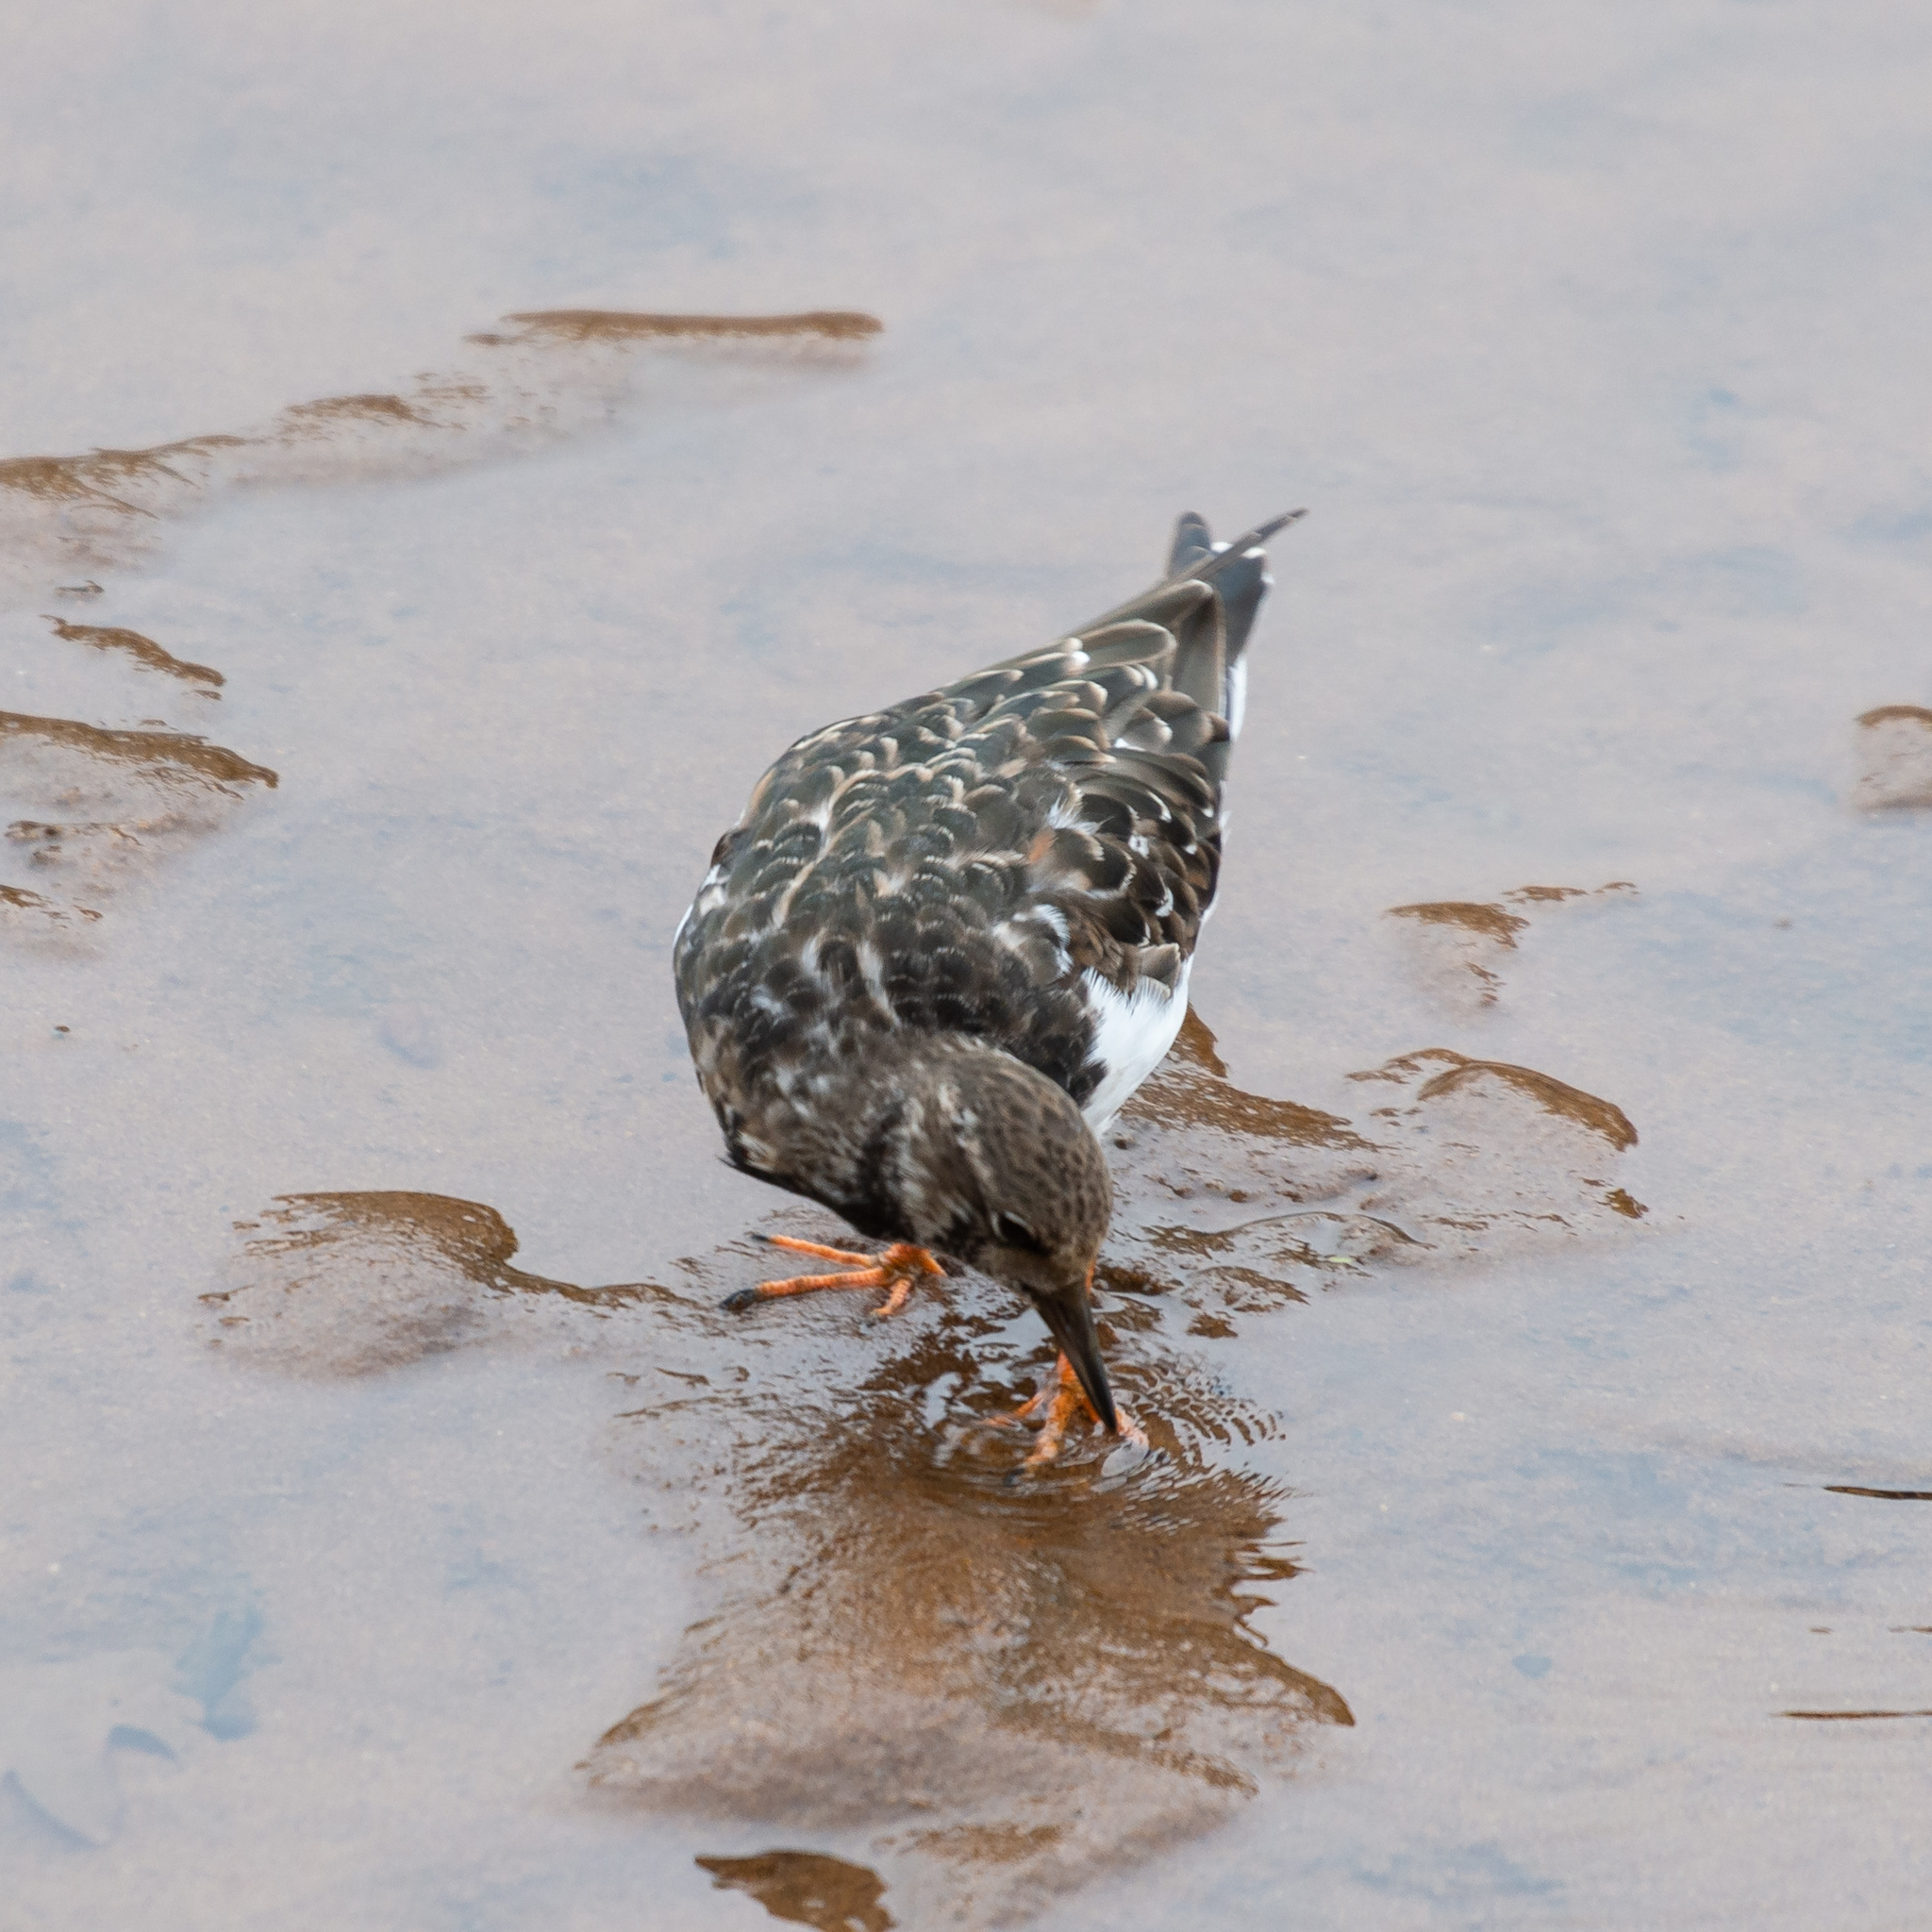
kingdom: Animalia
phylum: Chordata
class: Aves
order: Charadriiformes
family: Scolopacidae
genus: Arenaria
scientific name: Arenaria interpres
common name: Ruddy turnstone
